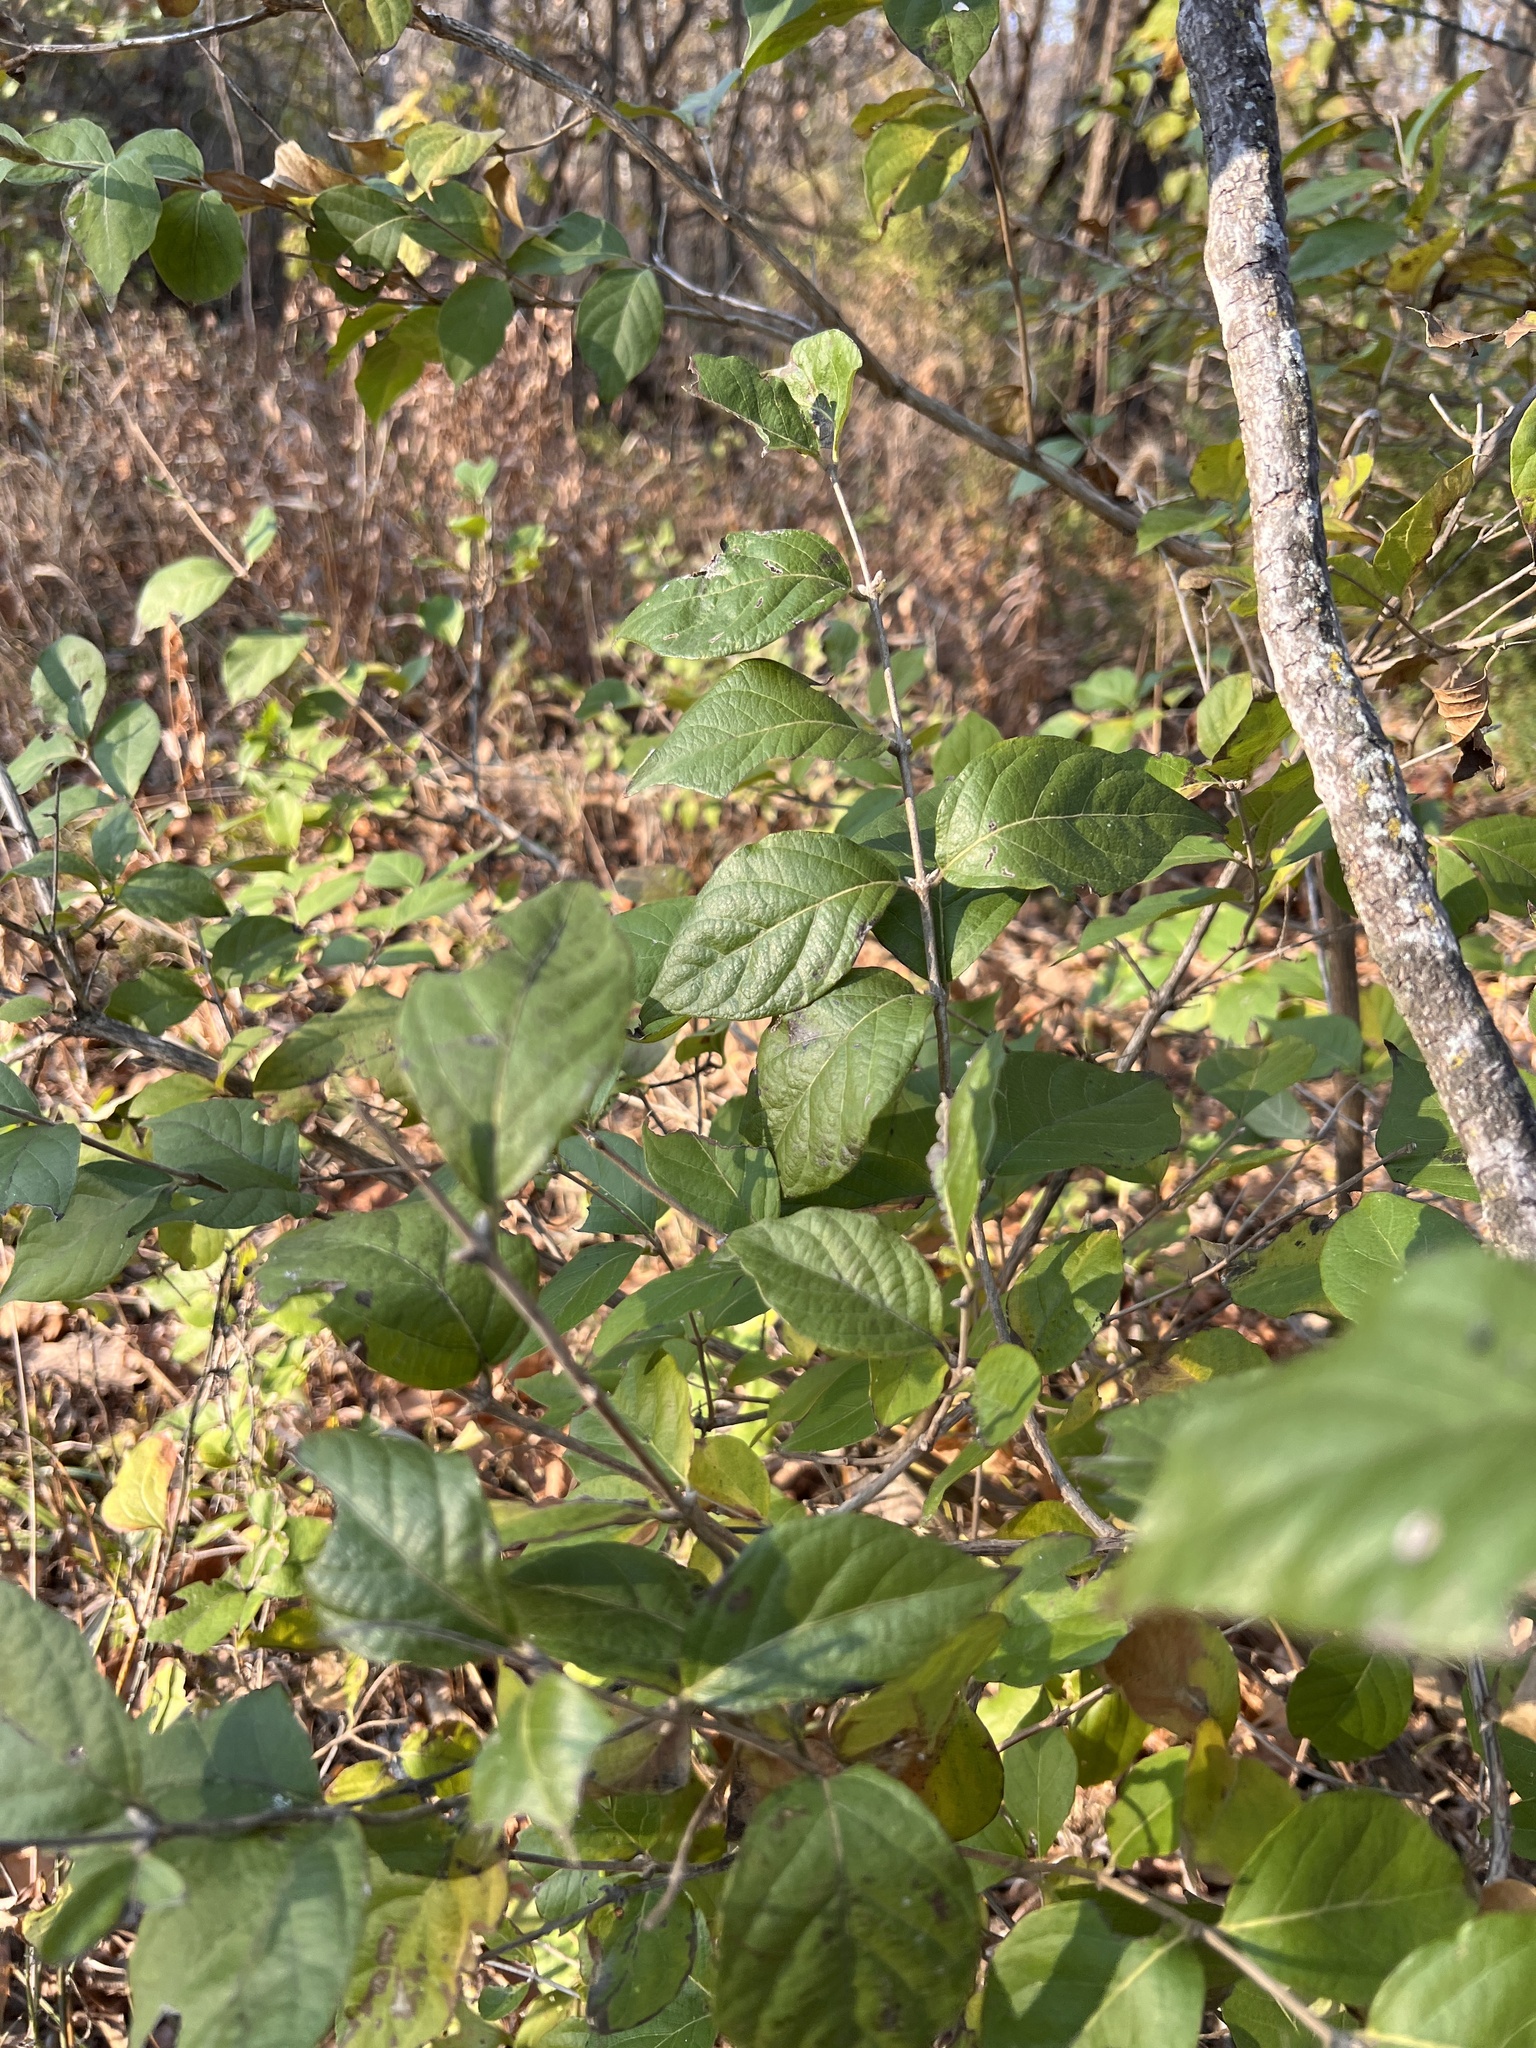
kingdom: Plantae
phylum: Tracheophyta
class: Magnoliopsida
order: Dipsacales
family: Caprifoliaceae
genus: Lonicera
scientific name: Lonicera maackii
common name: Amur honeysuckle
